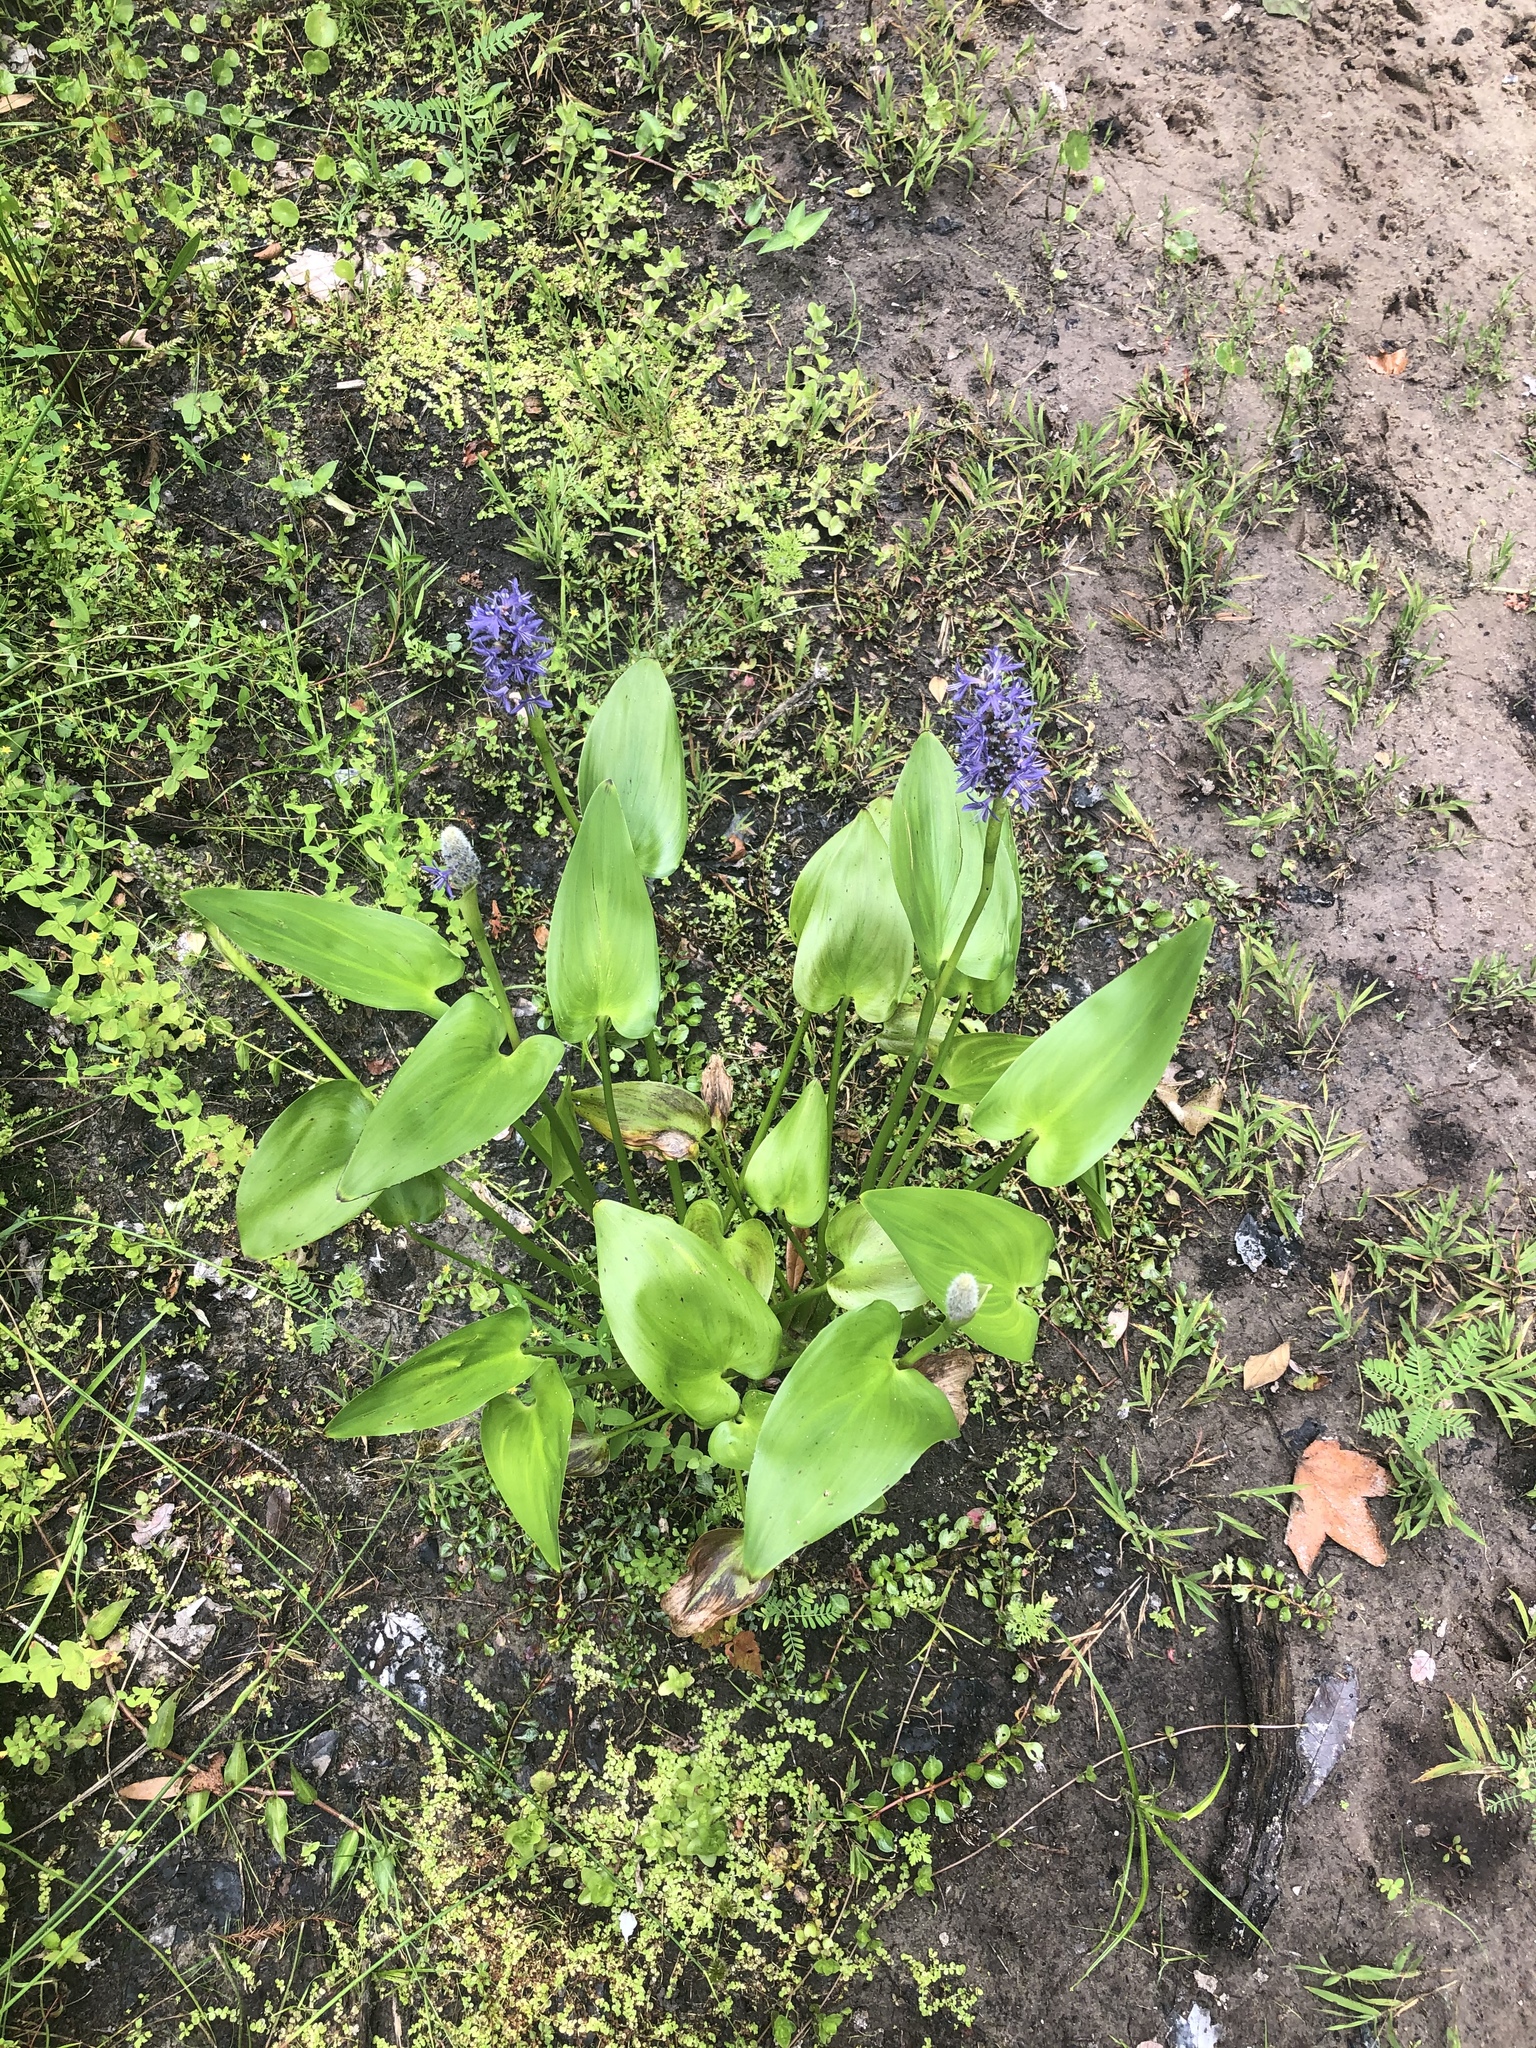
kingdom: Plantae
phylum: Tracheophyta
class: Liliopsida
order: Commelinales
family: Pontederiaceae
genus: Pontederia
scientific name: Pontederia cordata
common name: Pickerelweed
